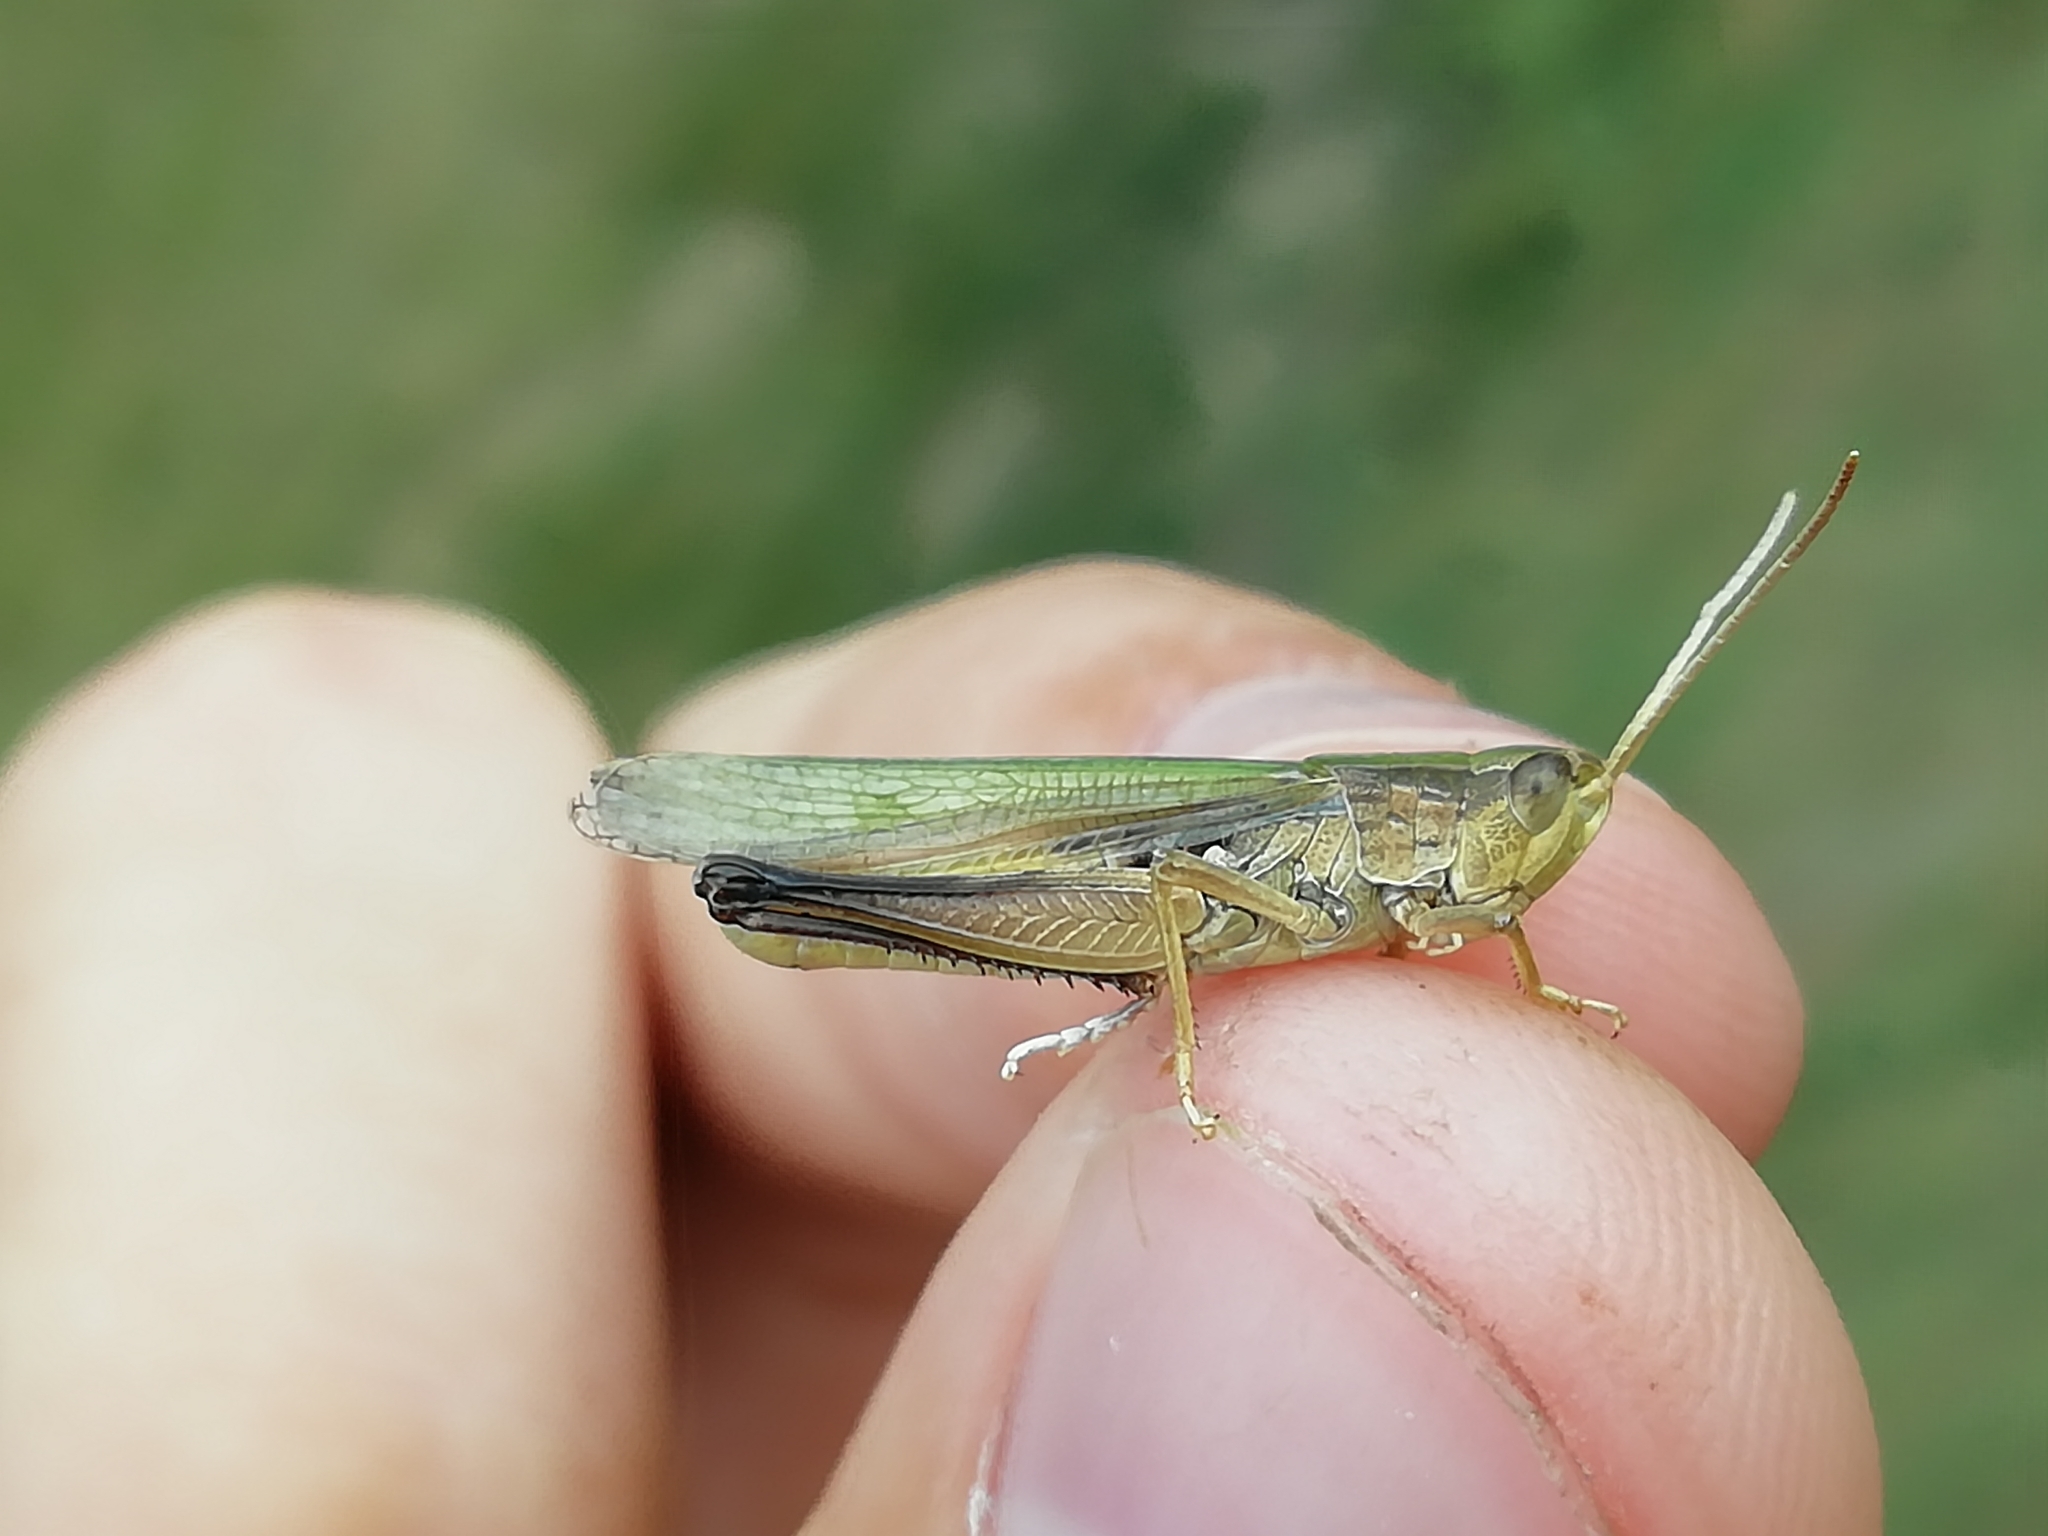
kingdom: Animalia
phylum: Arthropoda
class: Insecta
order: Orthoptera
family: Acrididae
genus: Chorthippus
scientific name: Chorthippus karelini
